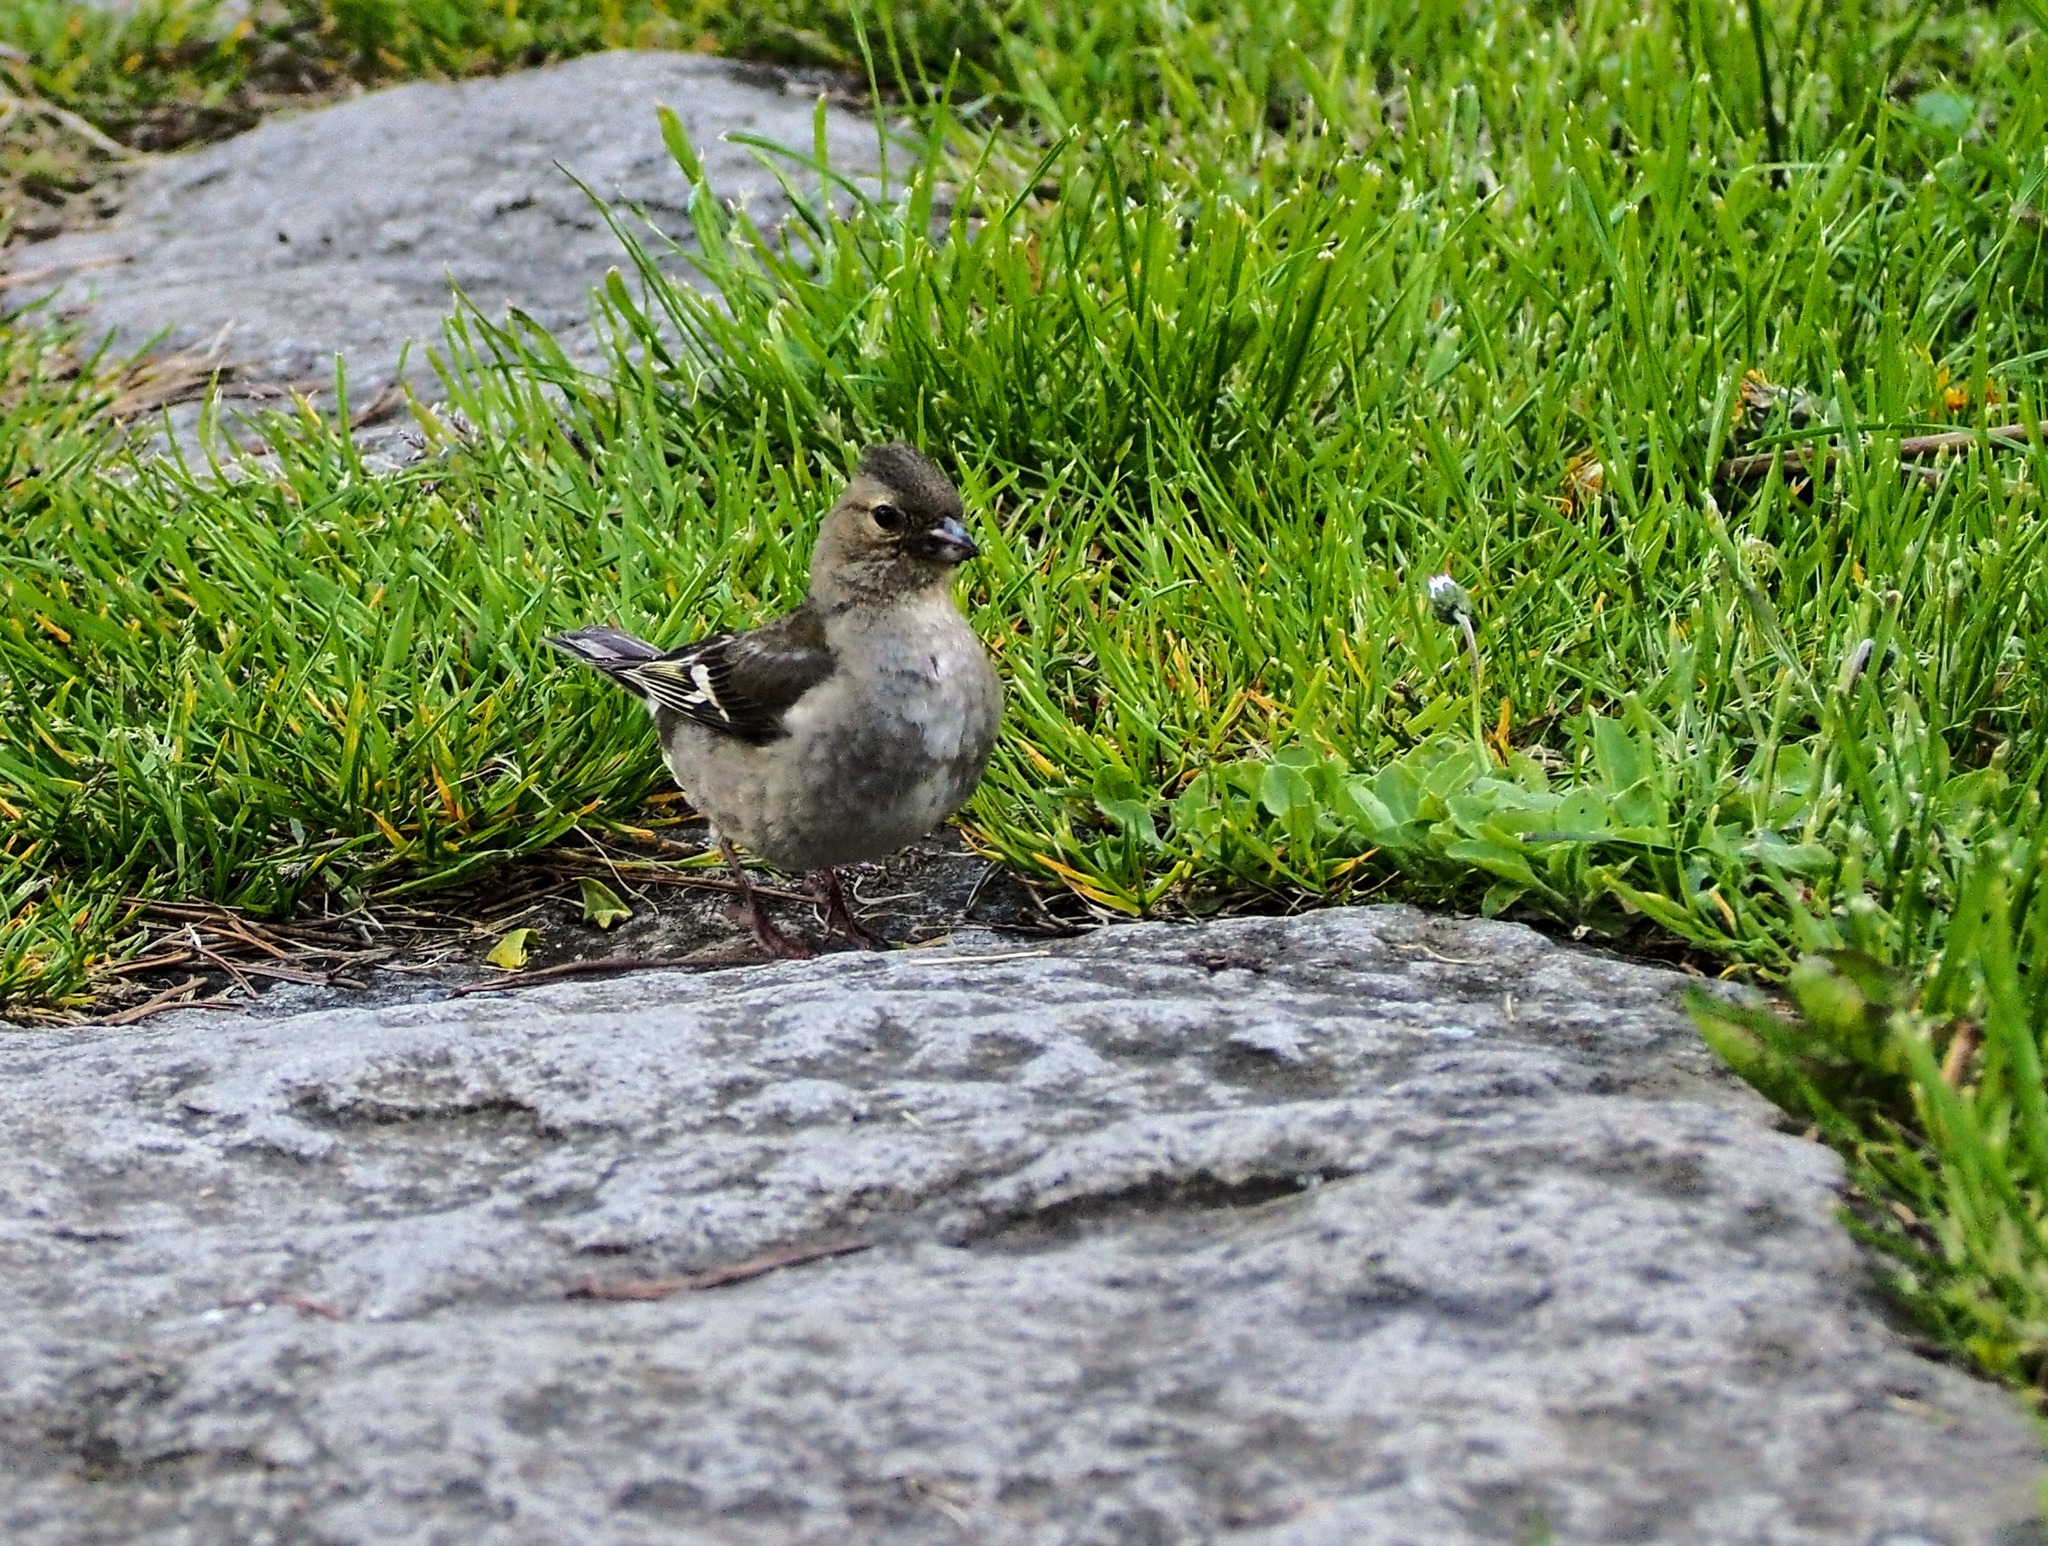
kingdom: Animalia
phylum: Chordata
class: Aves
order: Passeriformes
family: Fringillidae
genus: Fringilla
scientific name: Fringilla coelebs
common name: Common chaffinch
